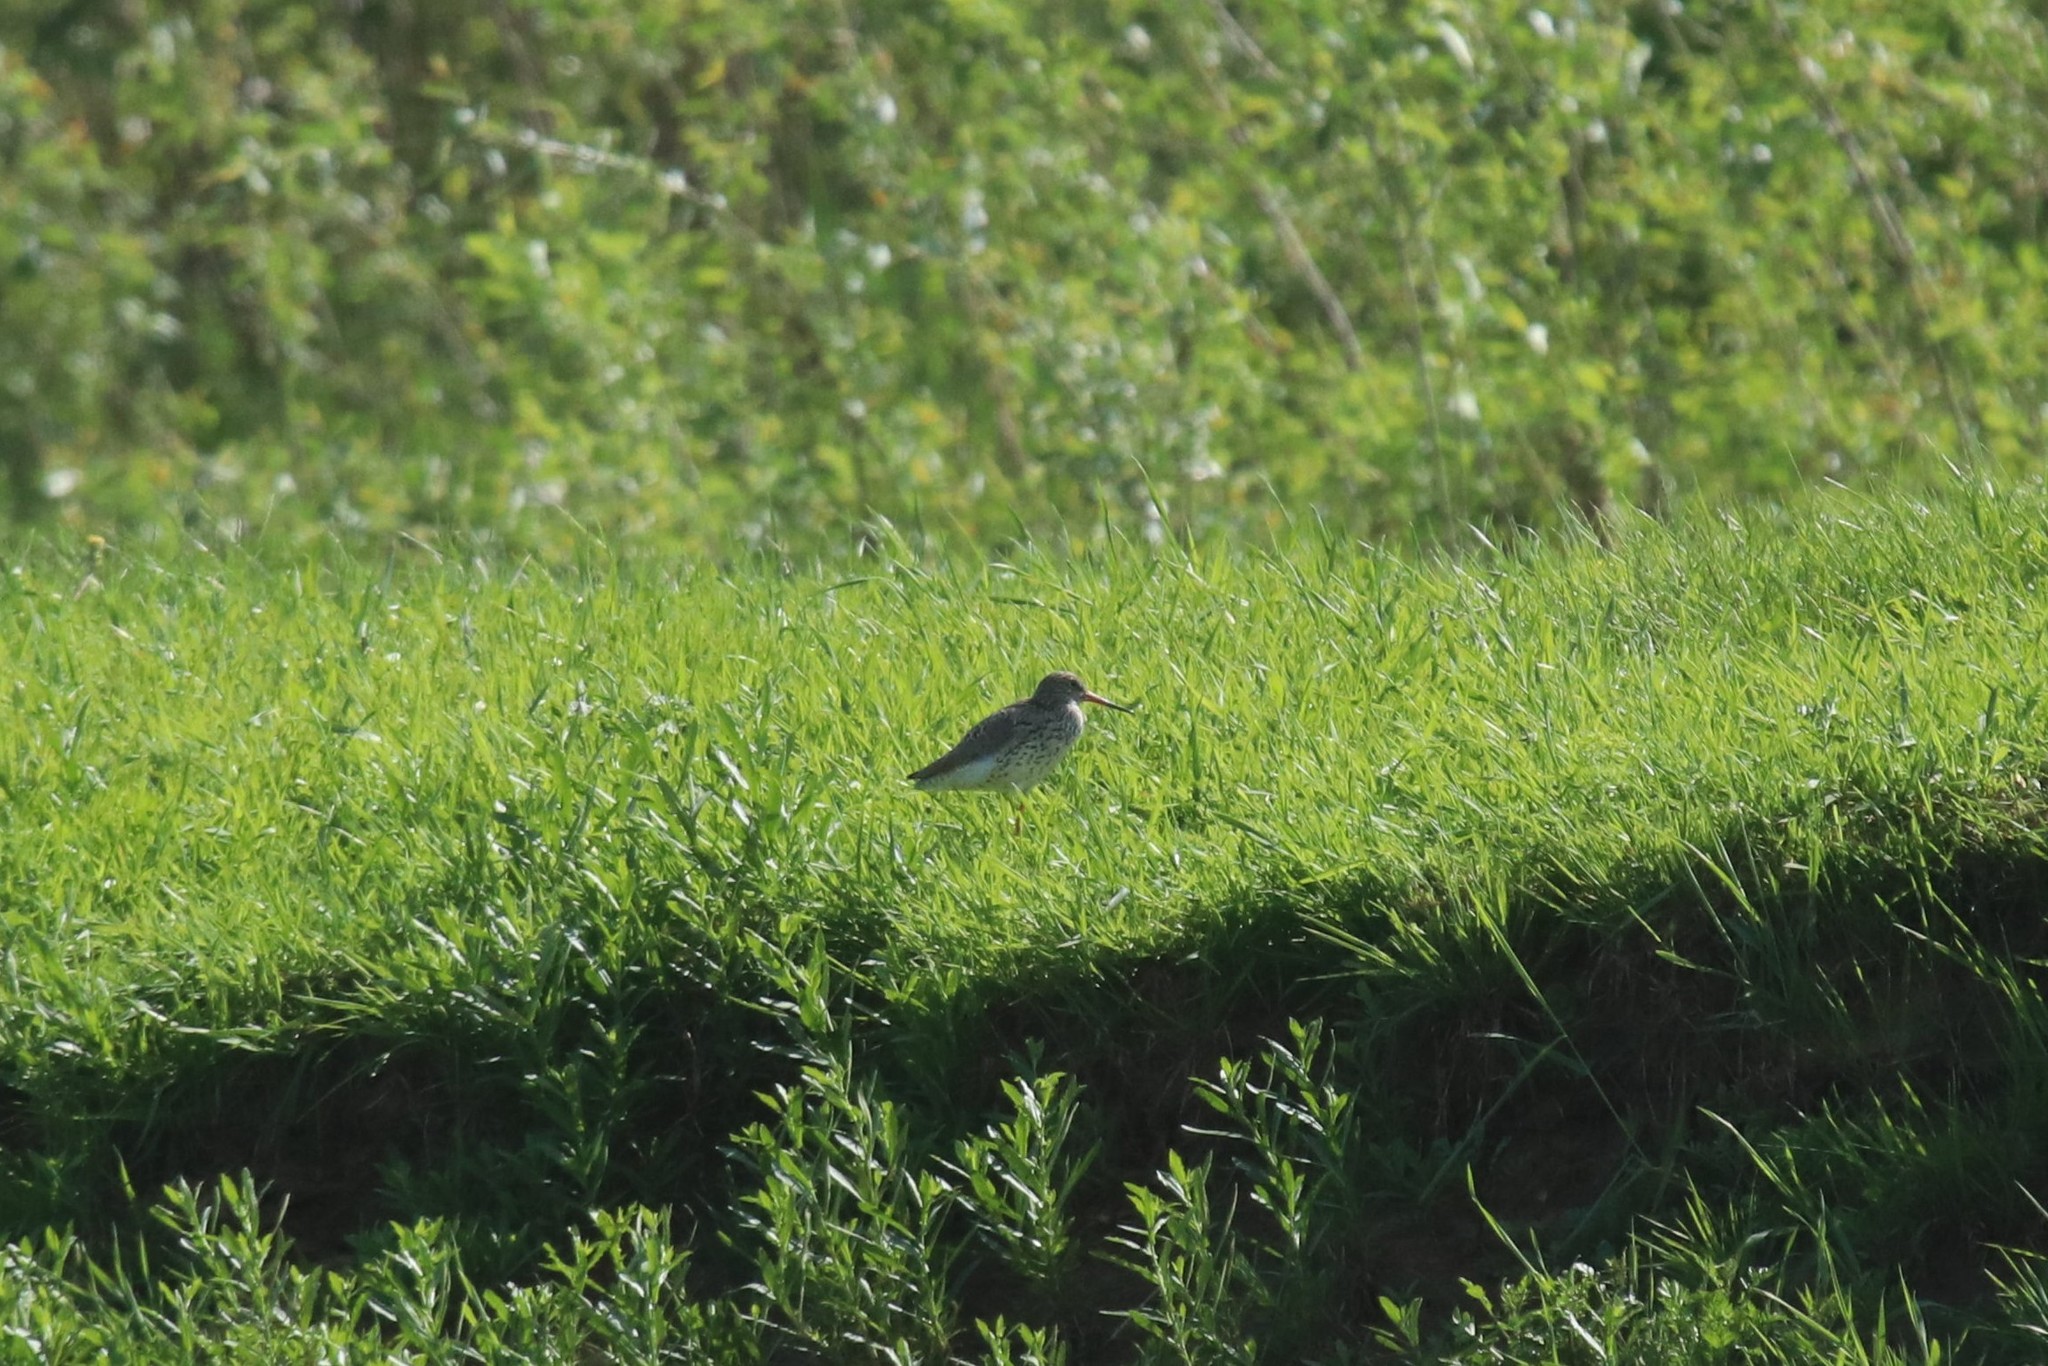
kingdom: Animalia
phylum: Chordata
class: Aves
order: Charadriiformes
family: Scolopacidae
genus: Tringa
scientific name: Tringa totanus
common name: Common redshank
